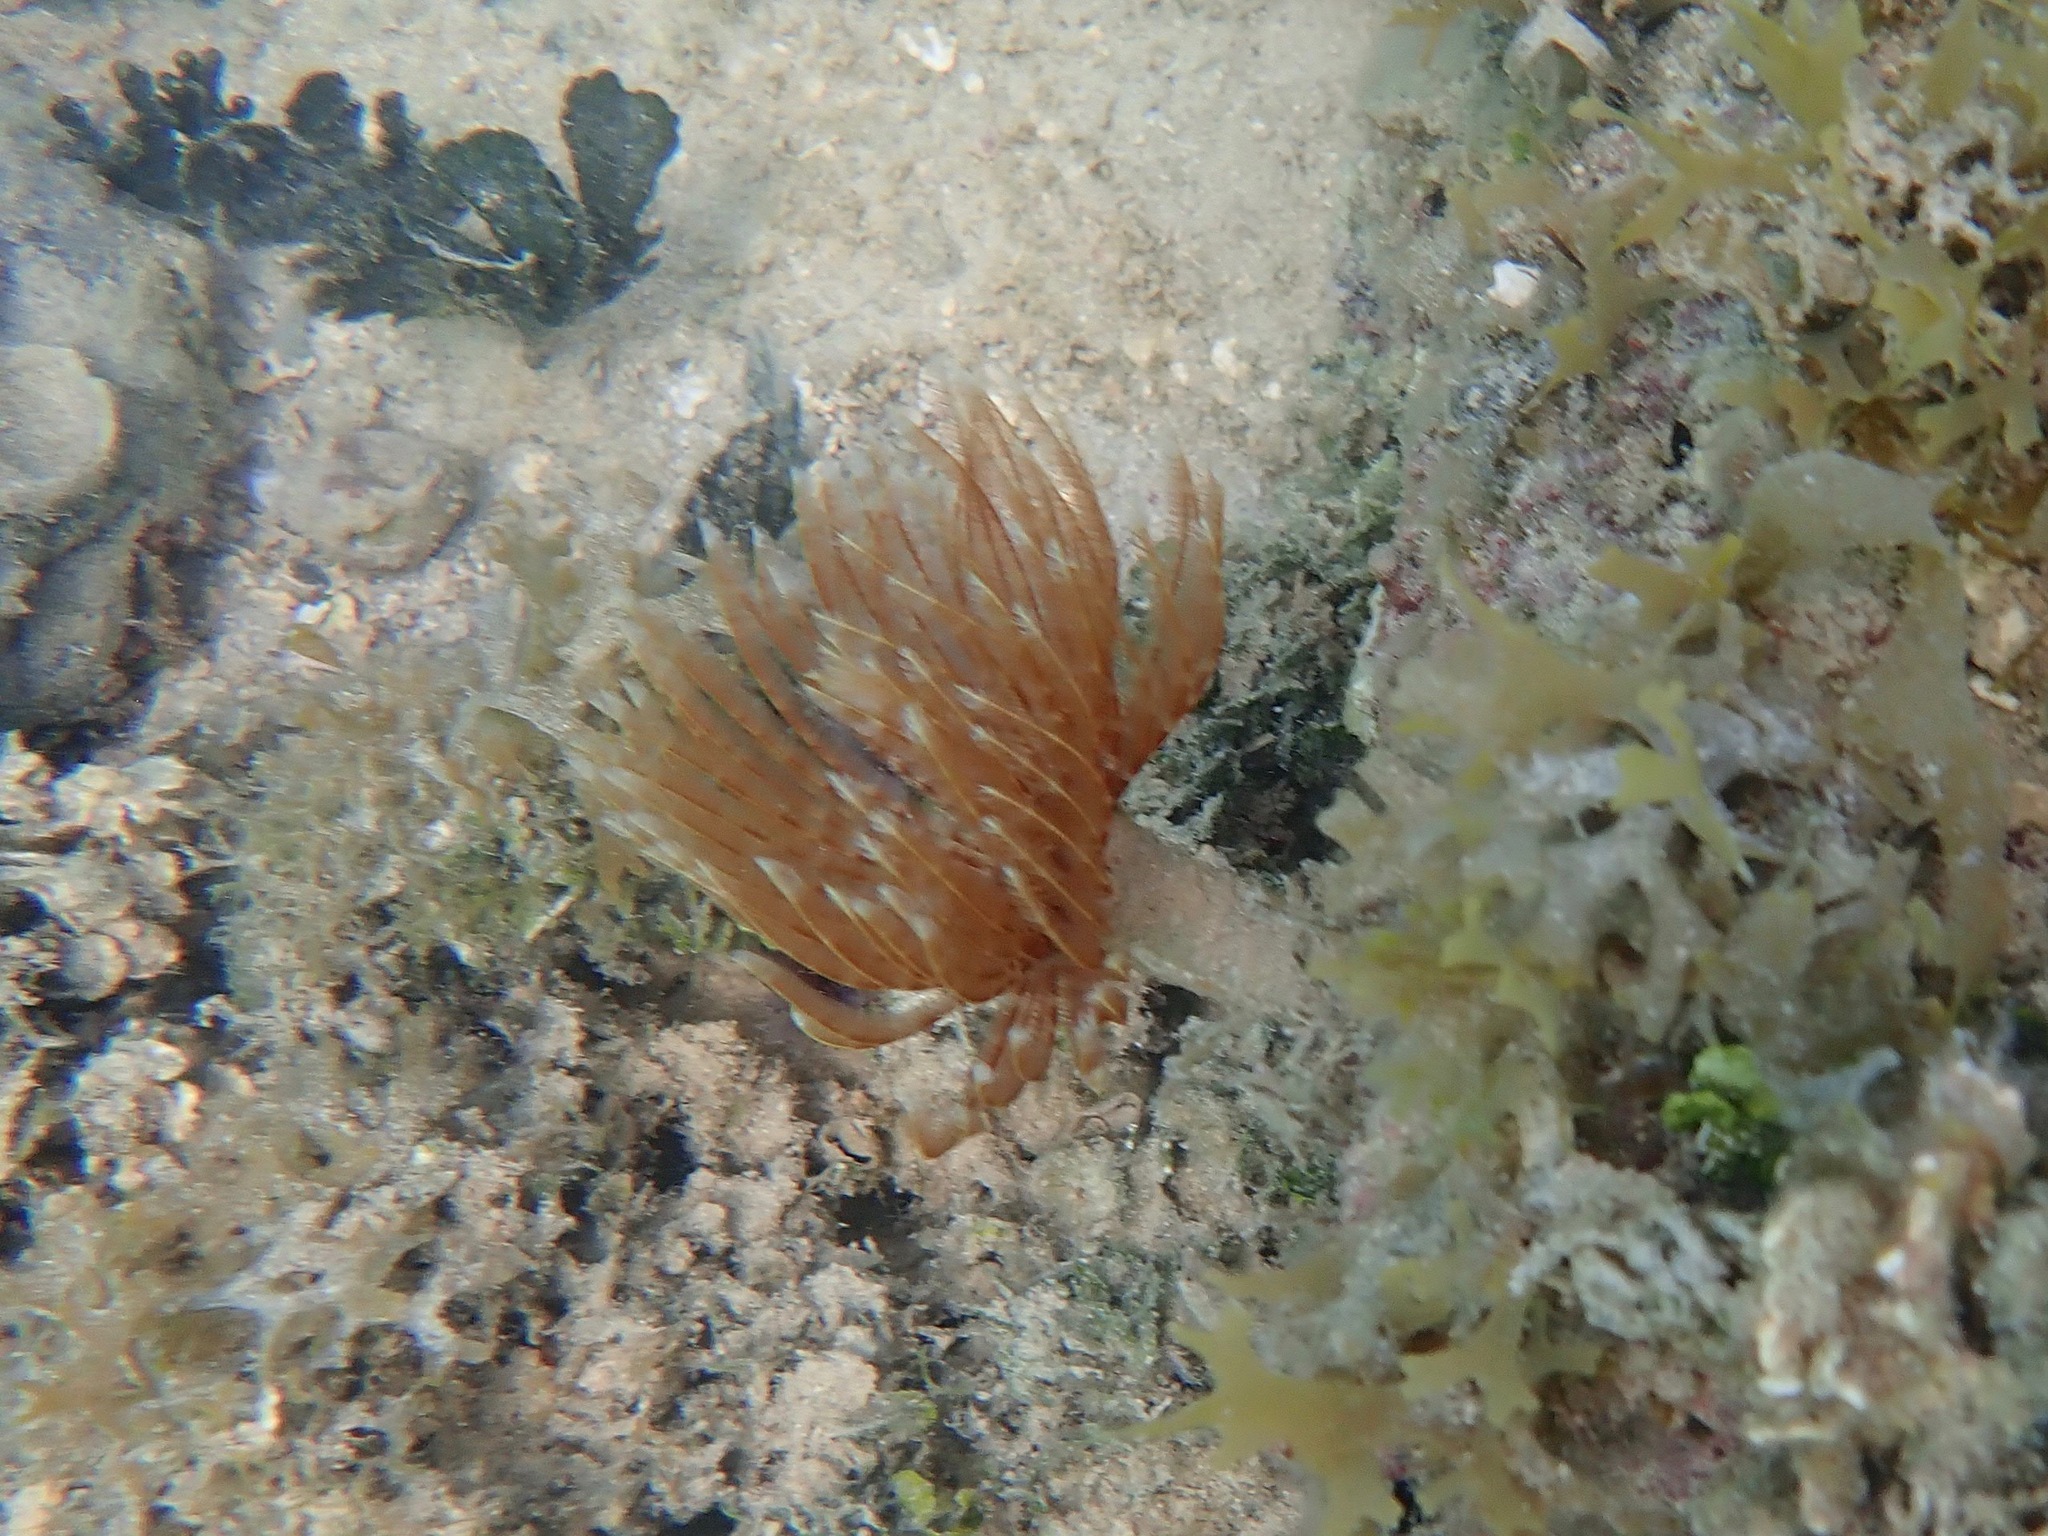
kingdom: Animalia
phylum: Annelida
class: Polychaeta
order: Sabellida
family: Sabellidae
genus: Sabellastarte
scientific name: Sabellastarte magnifica
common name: Giant feather-duster worm
